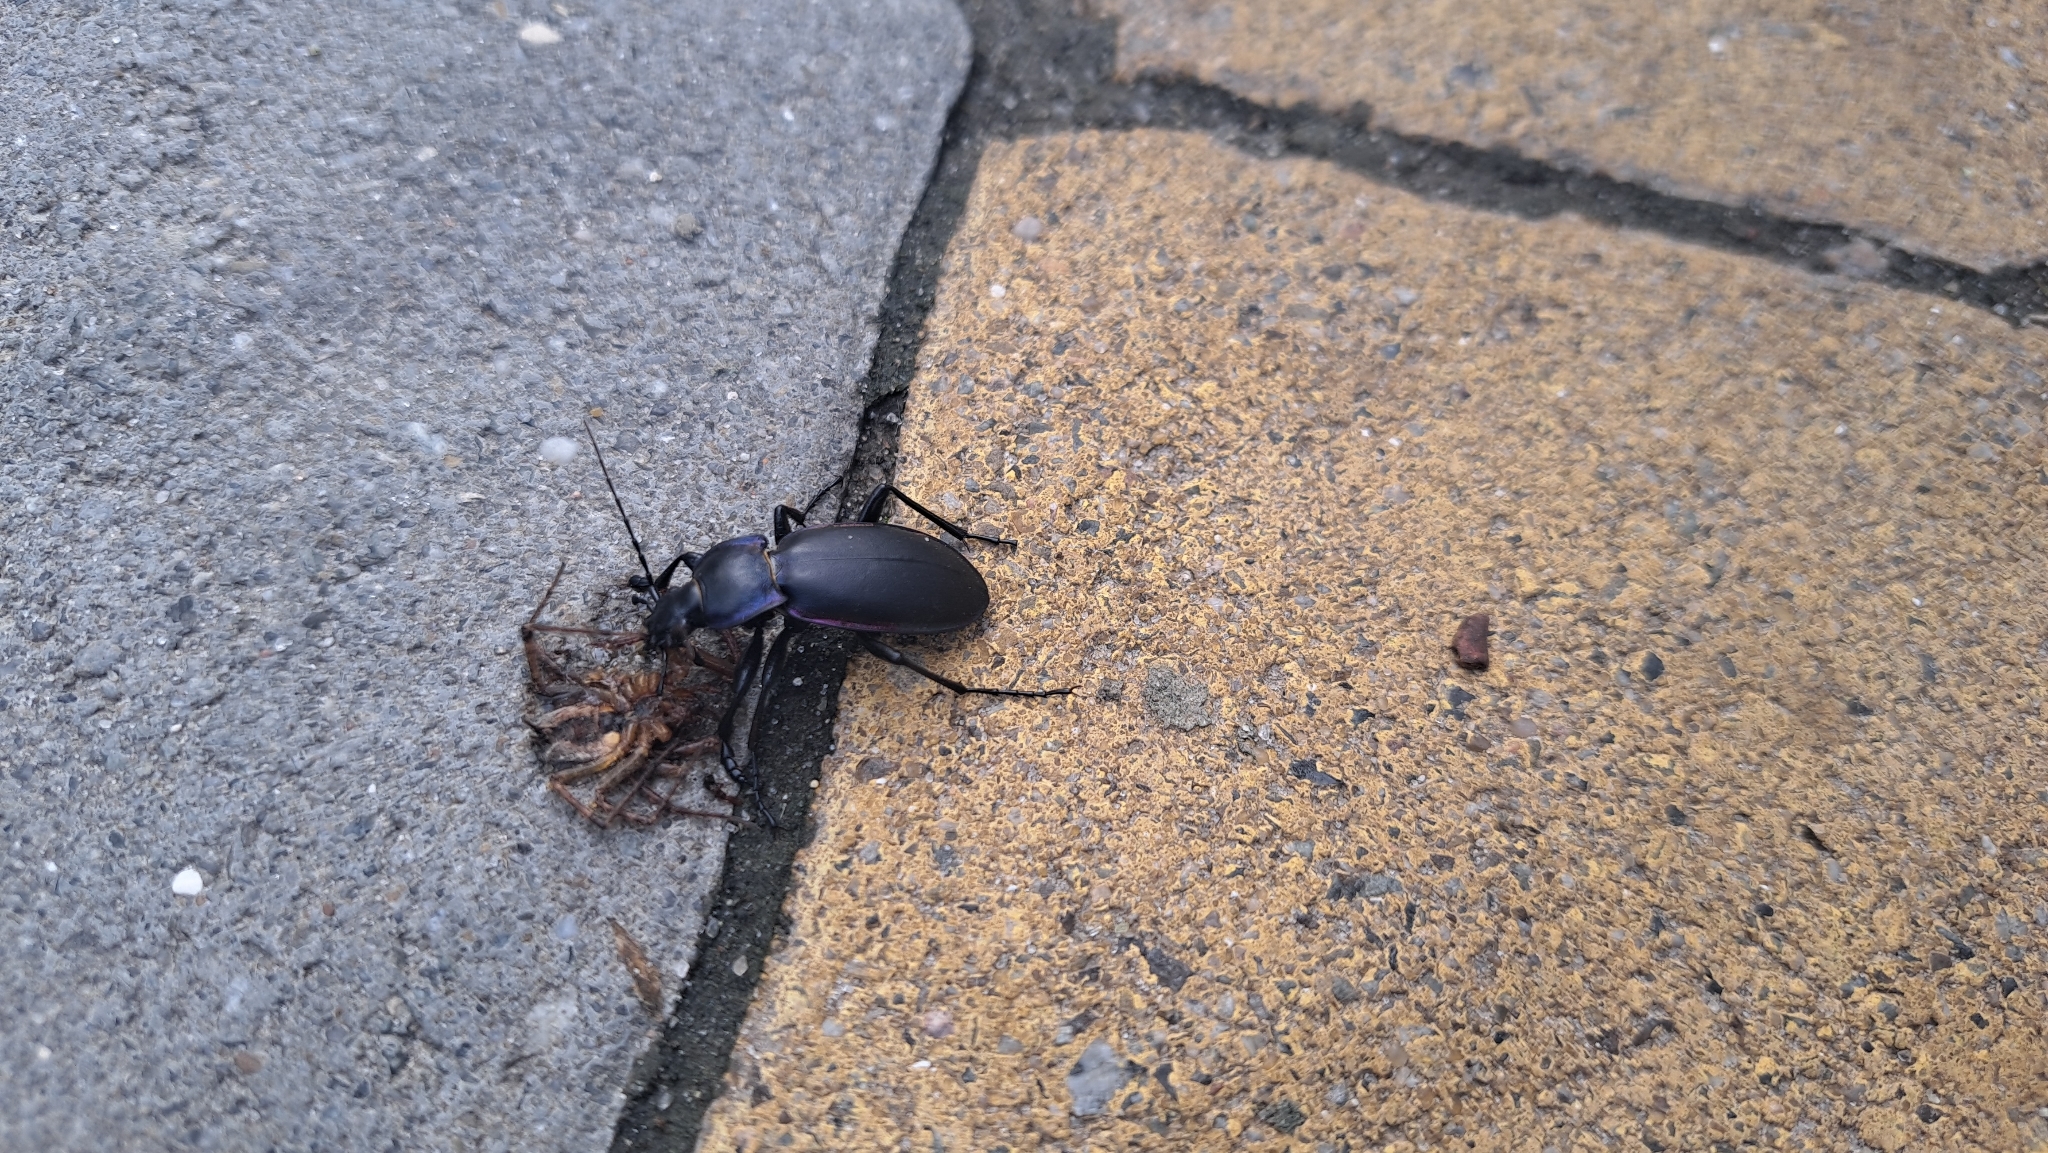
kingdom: Animalia
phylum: Arthropoda
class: Insecta
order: Coleoptera
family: Carabidae
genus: Carabus
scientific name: Carabus violaceus
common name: Violet ground beetle
